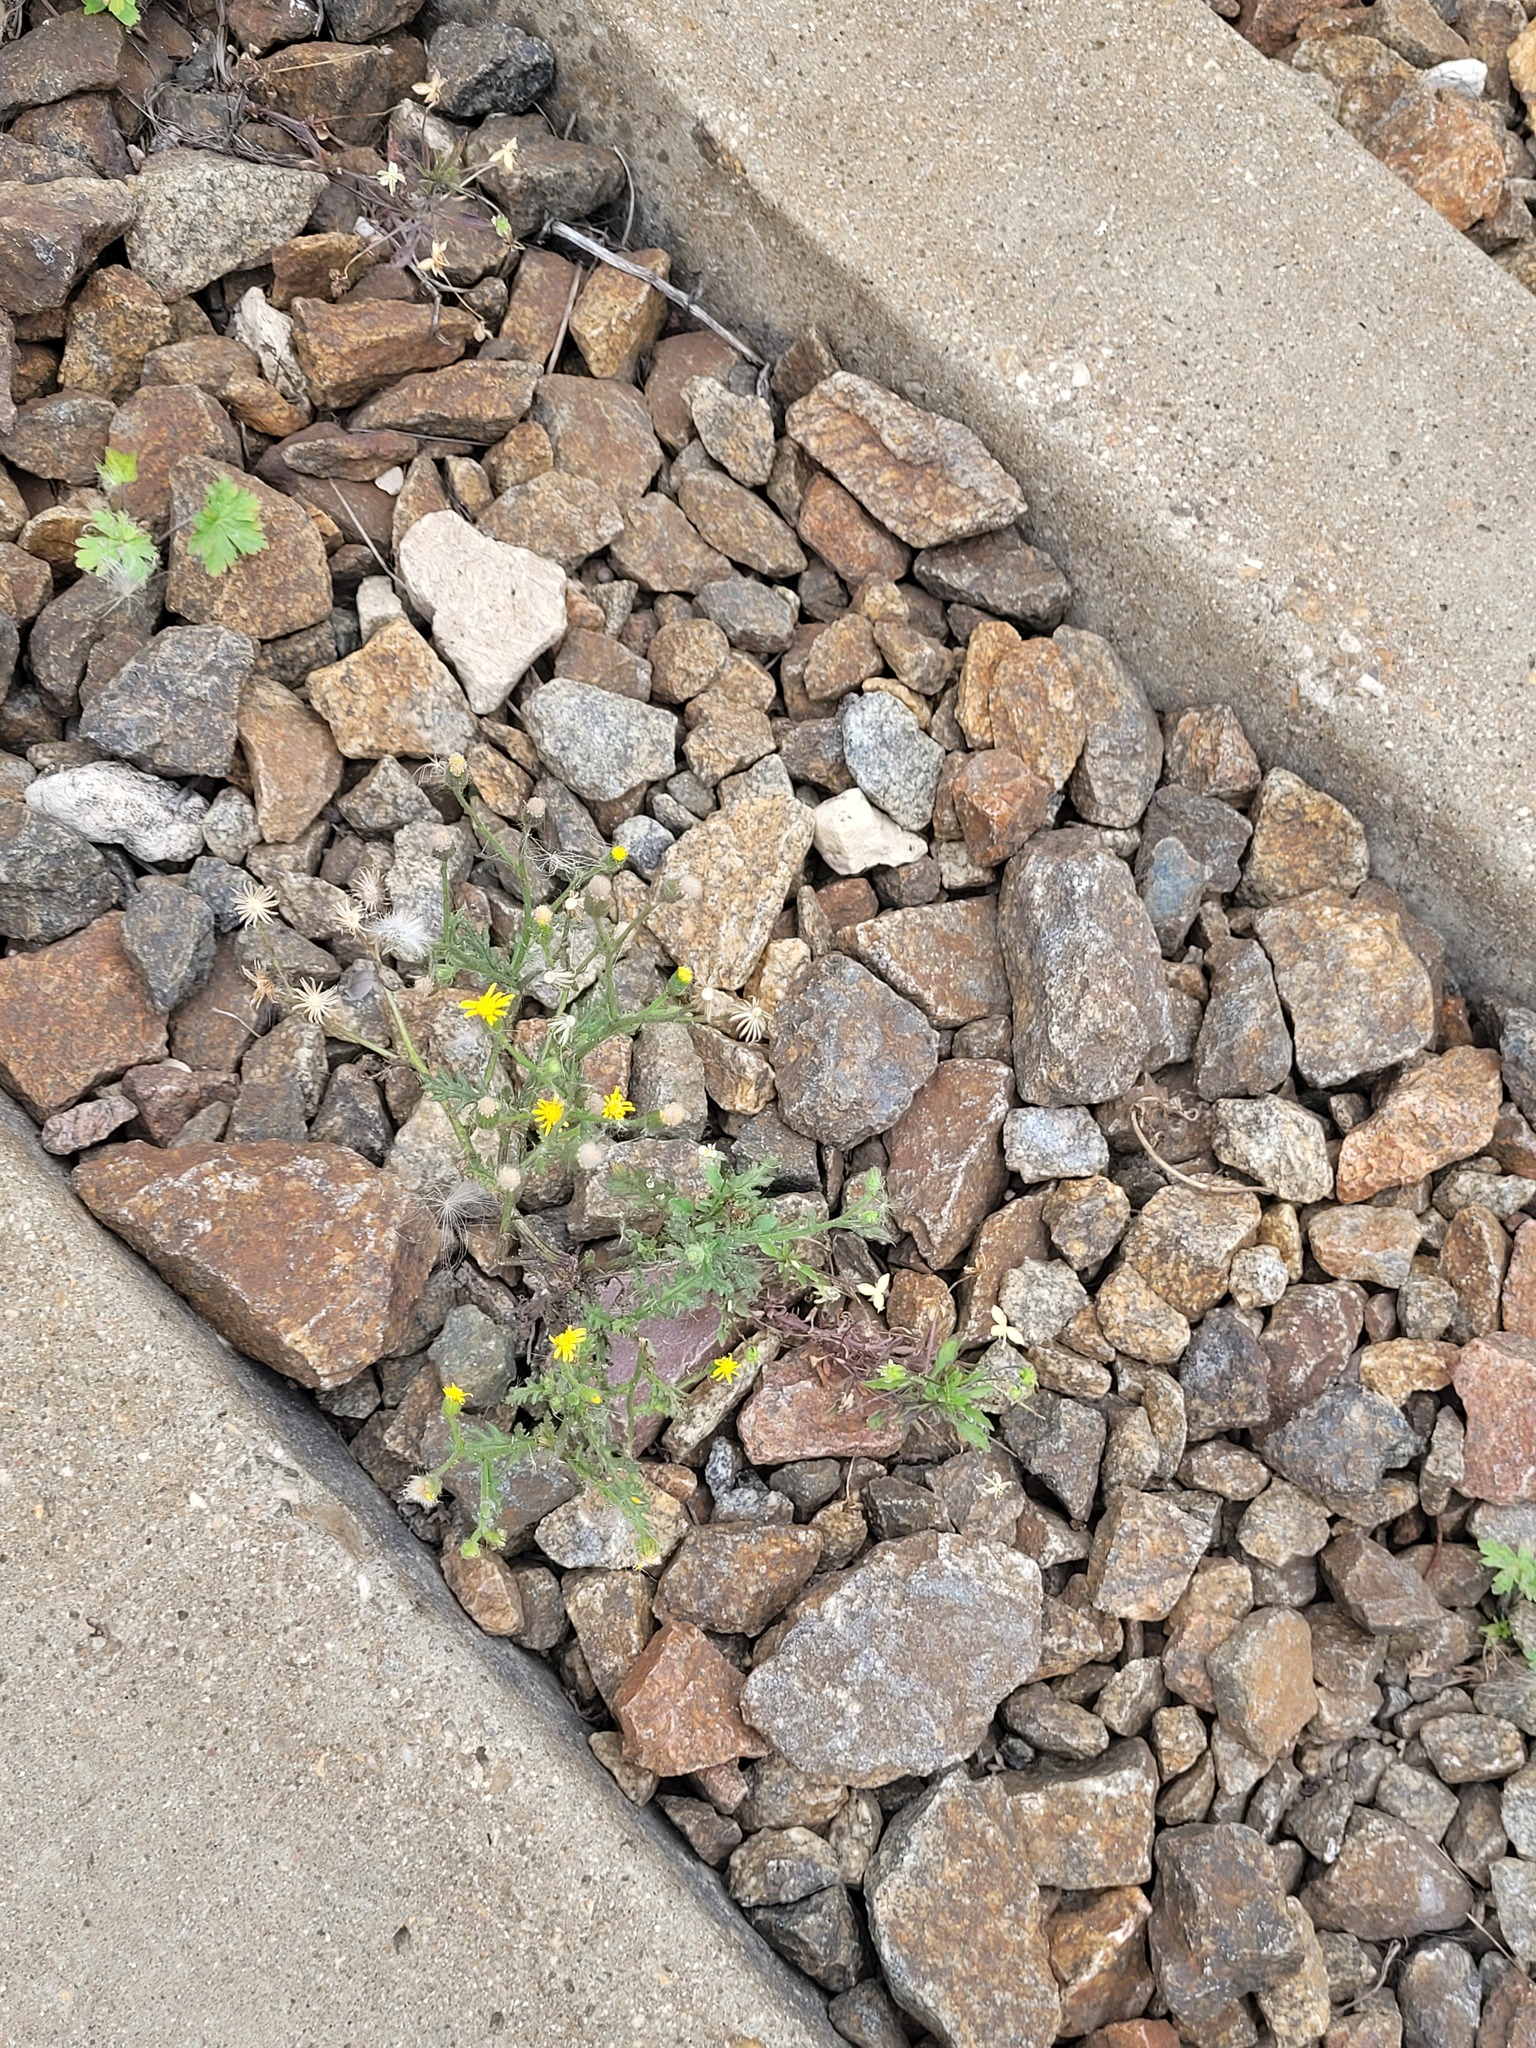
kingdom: Plantae
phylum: Tracheophyta
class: Magnoliopsida
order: Asterales
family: Asteraceae
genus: Senecio
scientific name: Senecio viscosus
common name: Sticky groundsel
